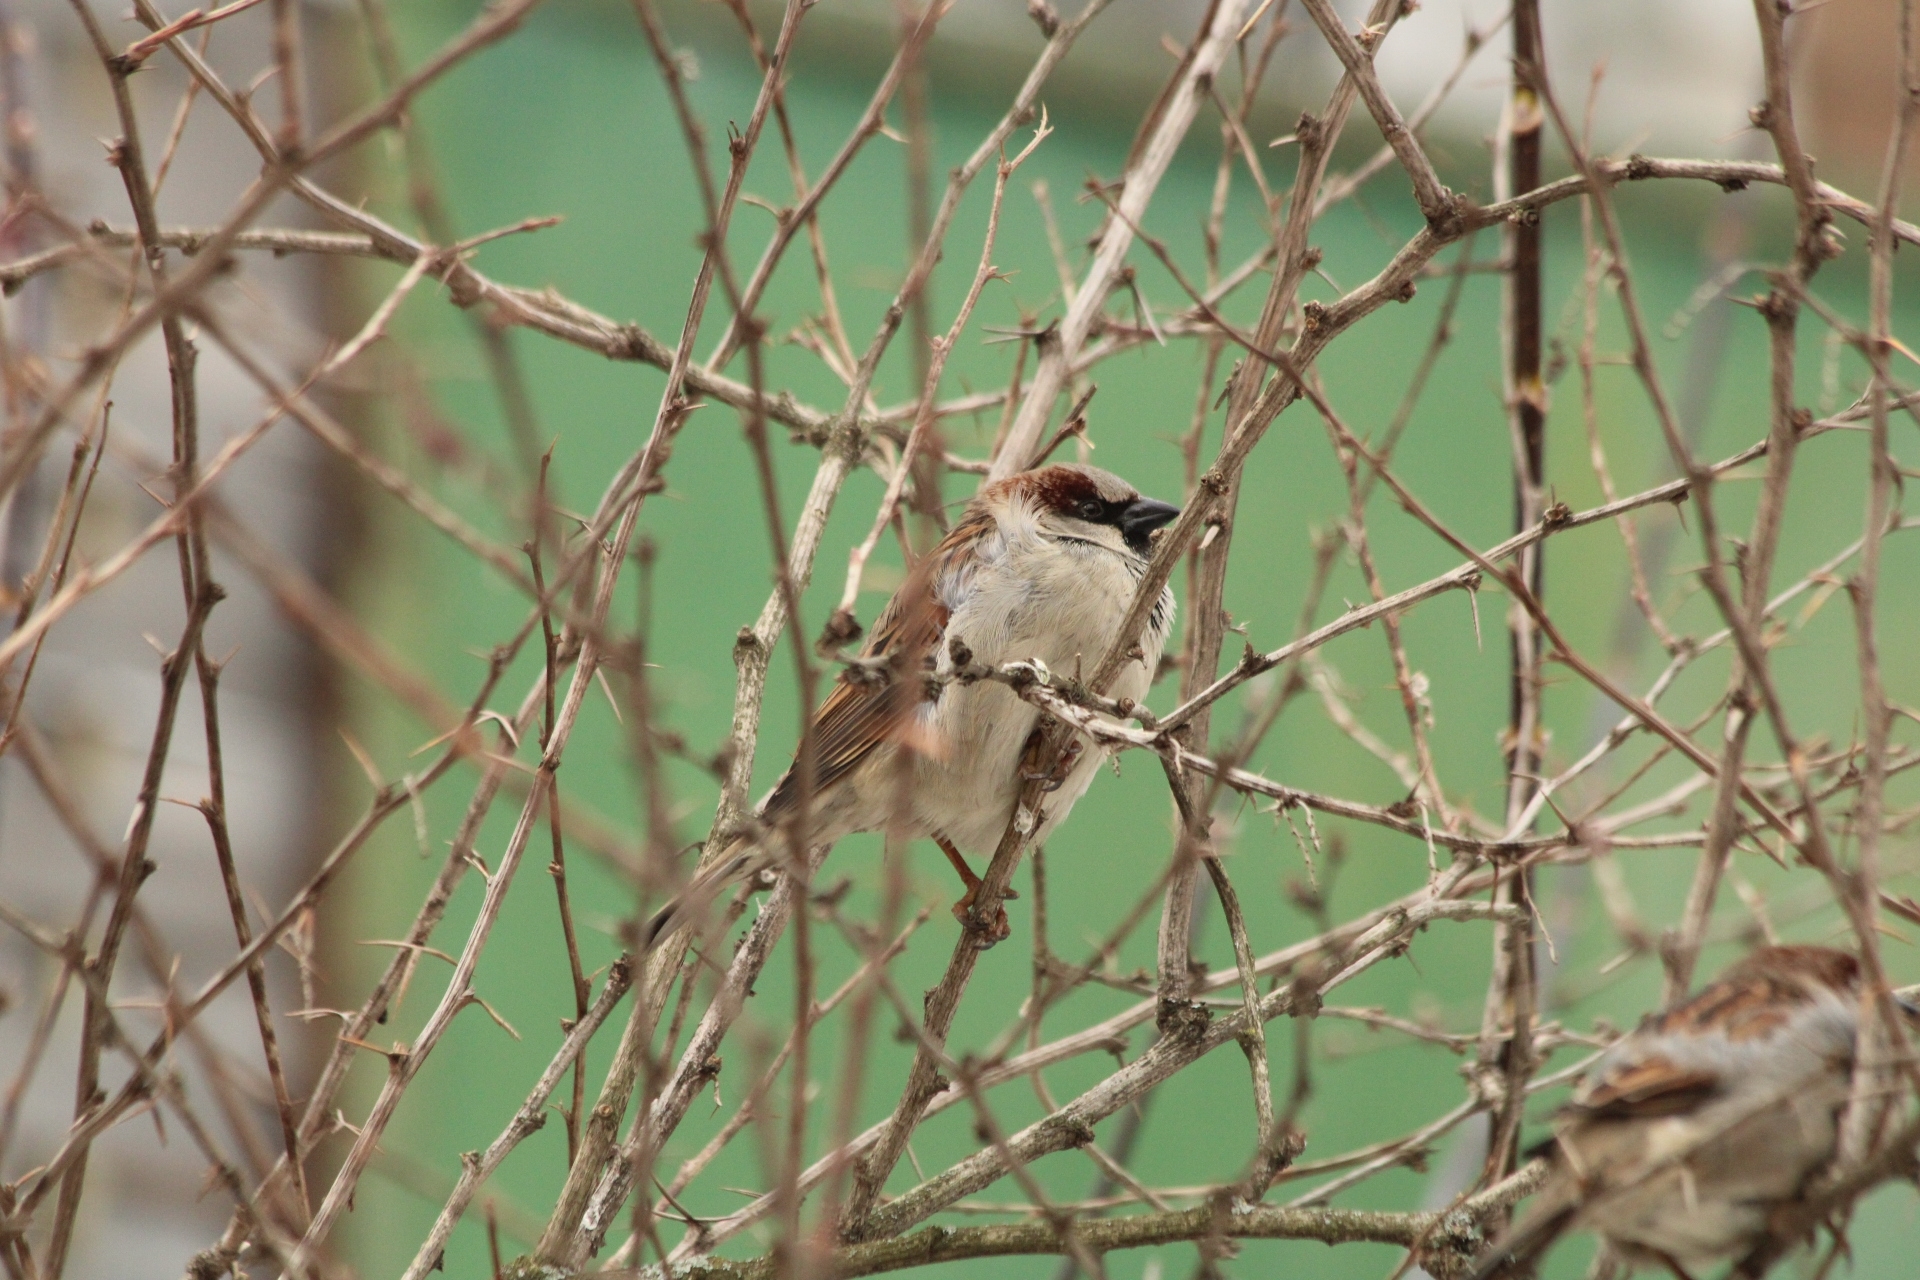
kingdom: Animalia
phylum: Chordata
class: Aves
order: Passeriformes
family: Passeridae
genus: Passer
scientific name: Passer domesticus
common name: House sparrow
